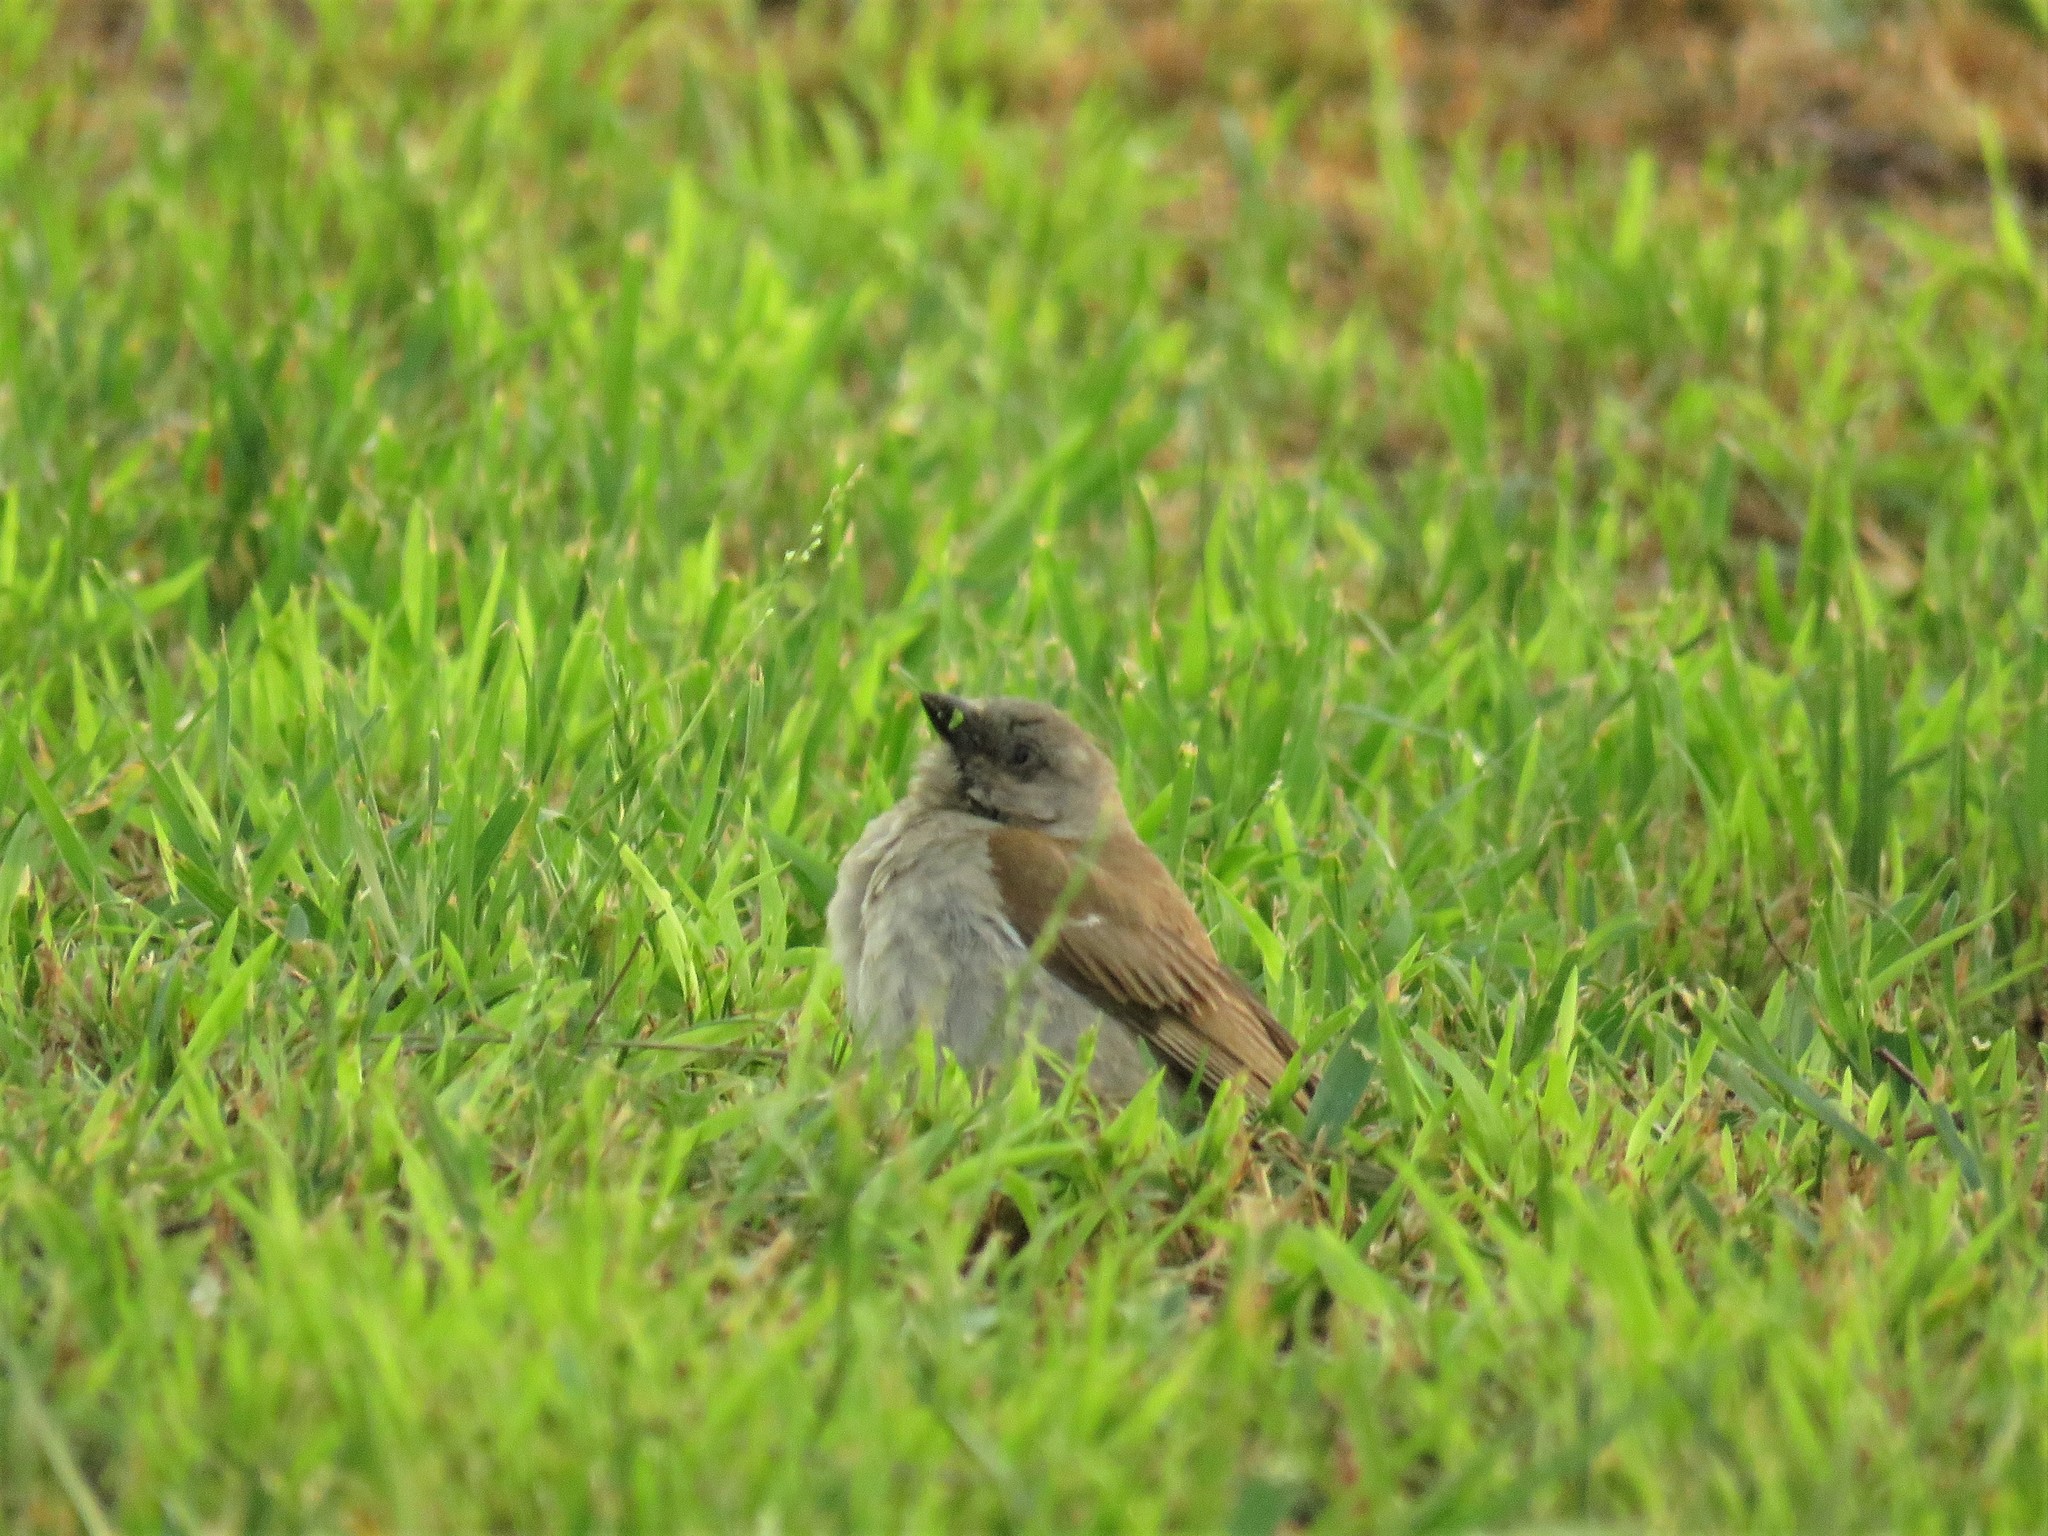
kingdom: Animalia
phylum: Chordata
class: Aves
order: Passeriformes
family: Passeridae
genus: Passer
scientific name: Passer diffusus
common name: Southern grey-headed sparrow
